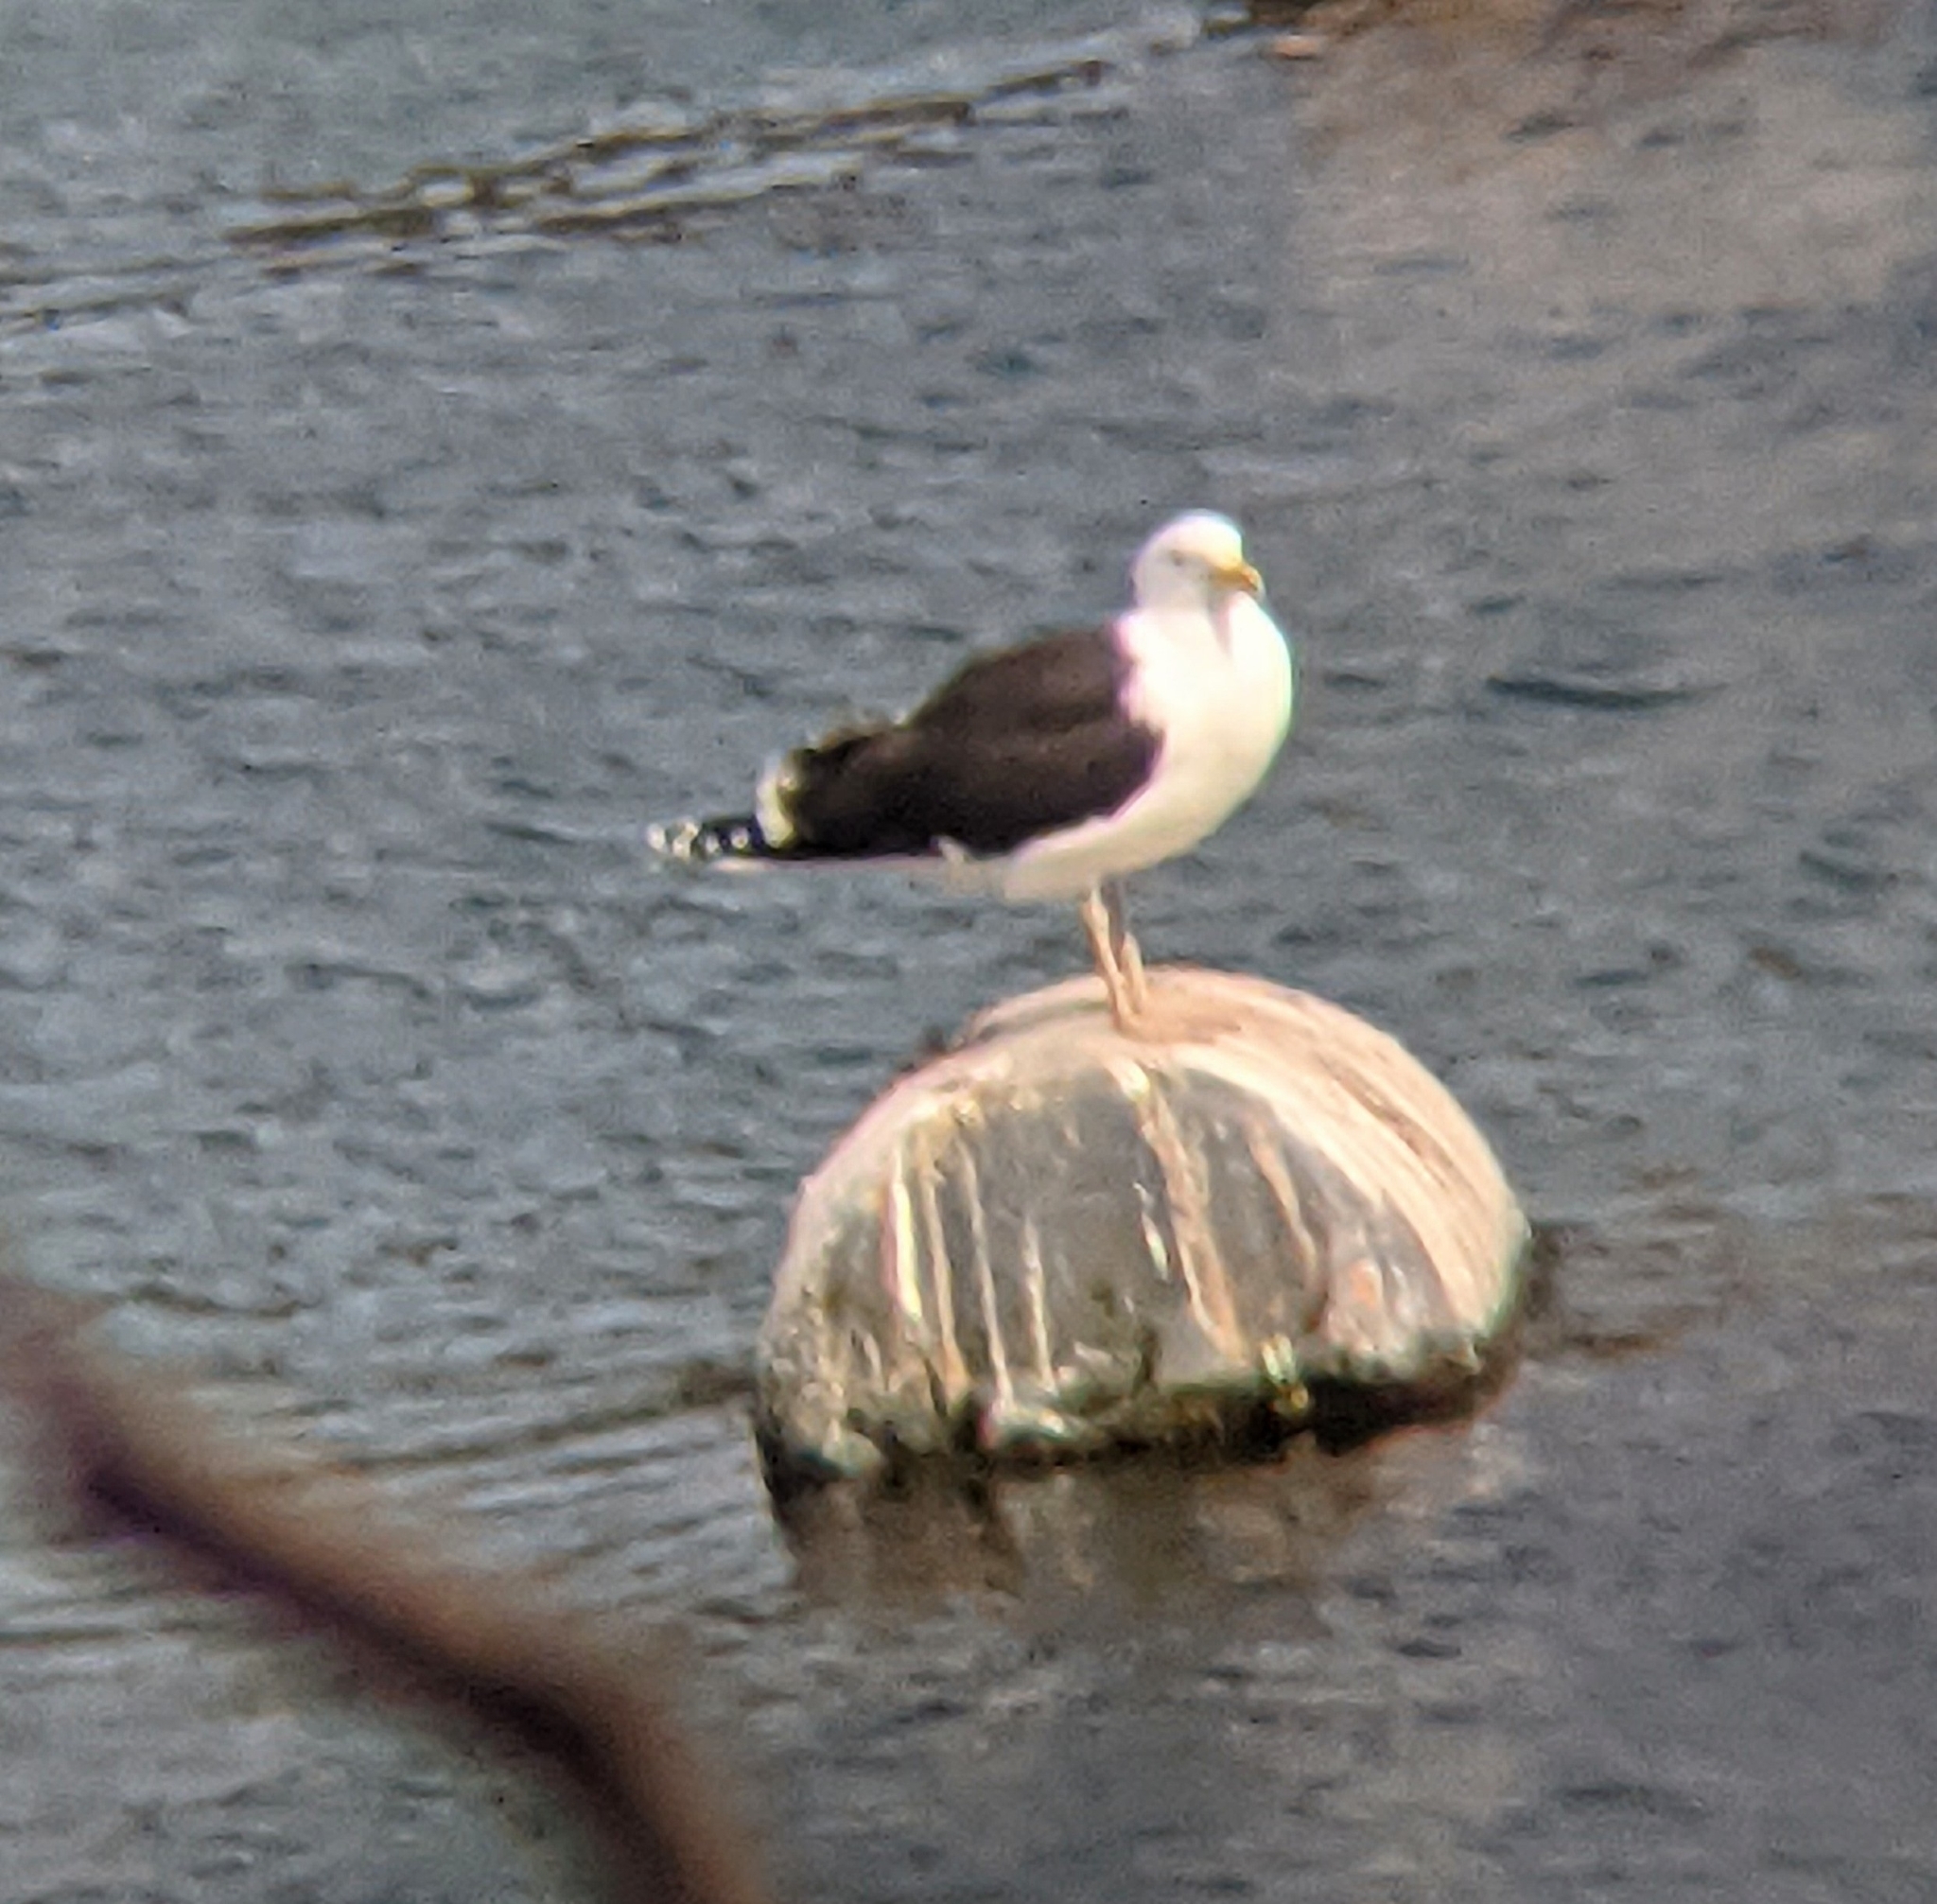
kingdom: Animalia
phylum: Chordata
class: Aves
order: Charadriiformes
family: Laridae
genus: Larus
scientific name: Larus marinus
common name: Great black-backed gull
